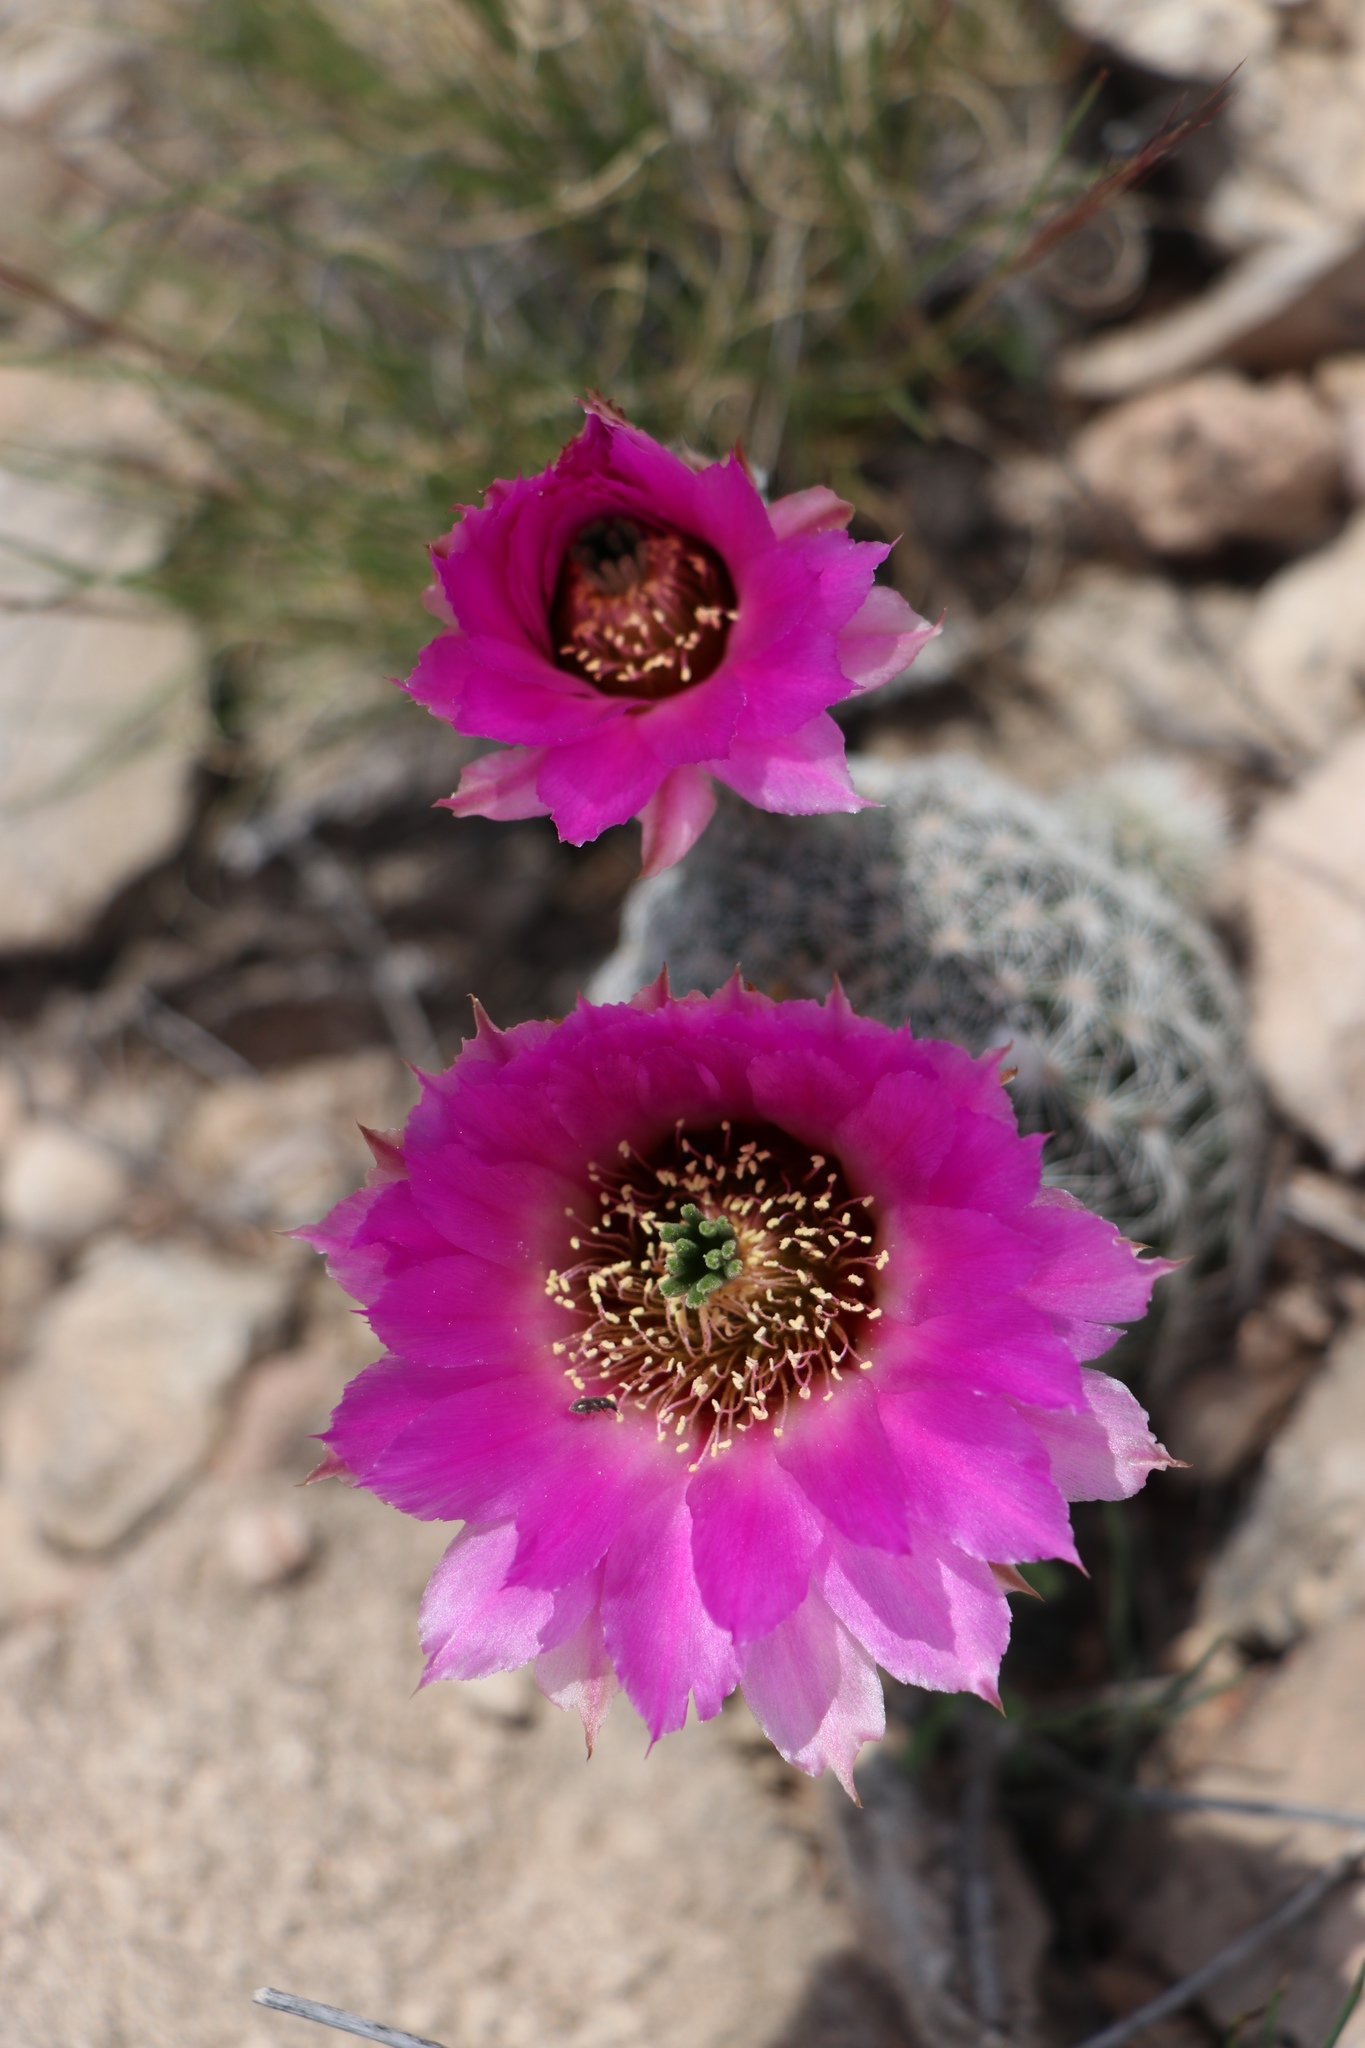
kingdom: Plantae
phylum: Tracheophyta
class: Magnoliopsida
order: Caryophyllales
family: Cactaceae
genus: Echinocereus
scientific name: Echinocereus reichenbachii
